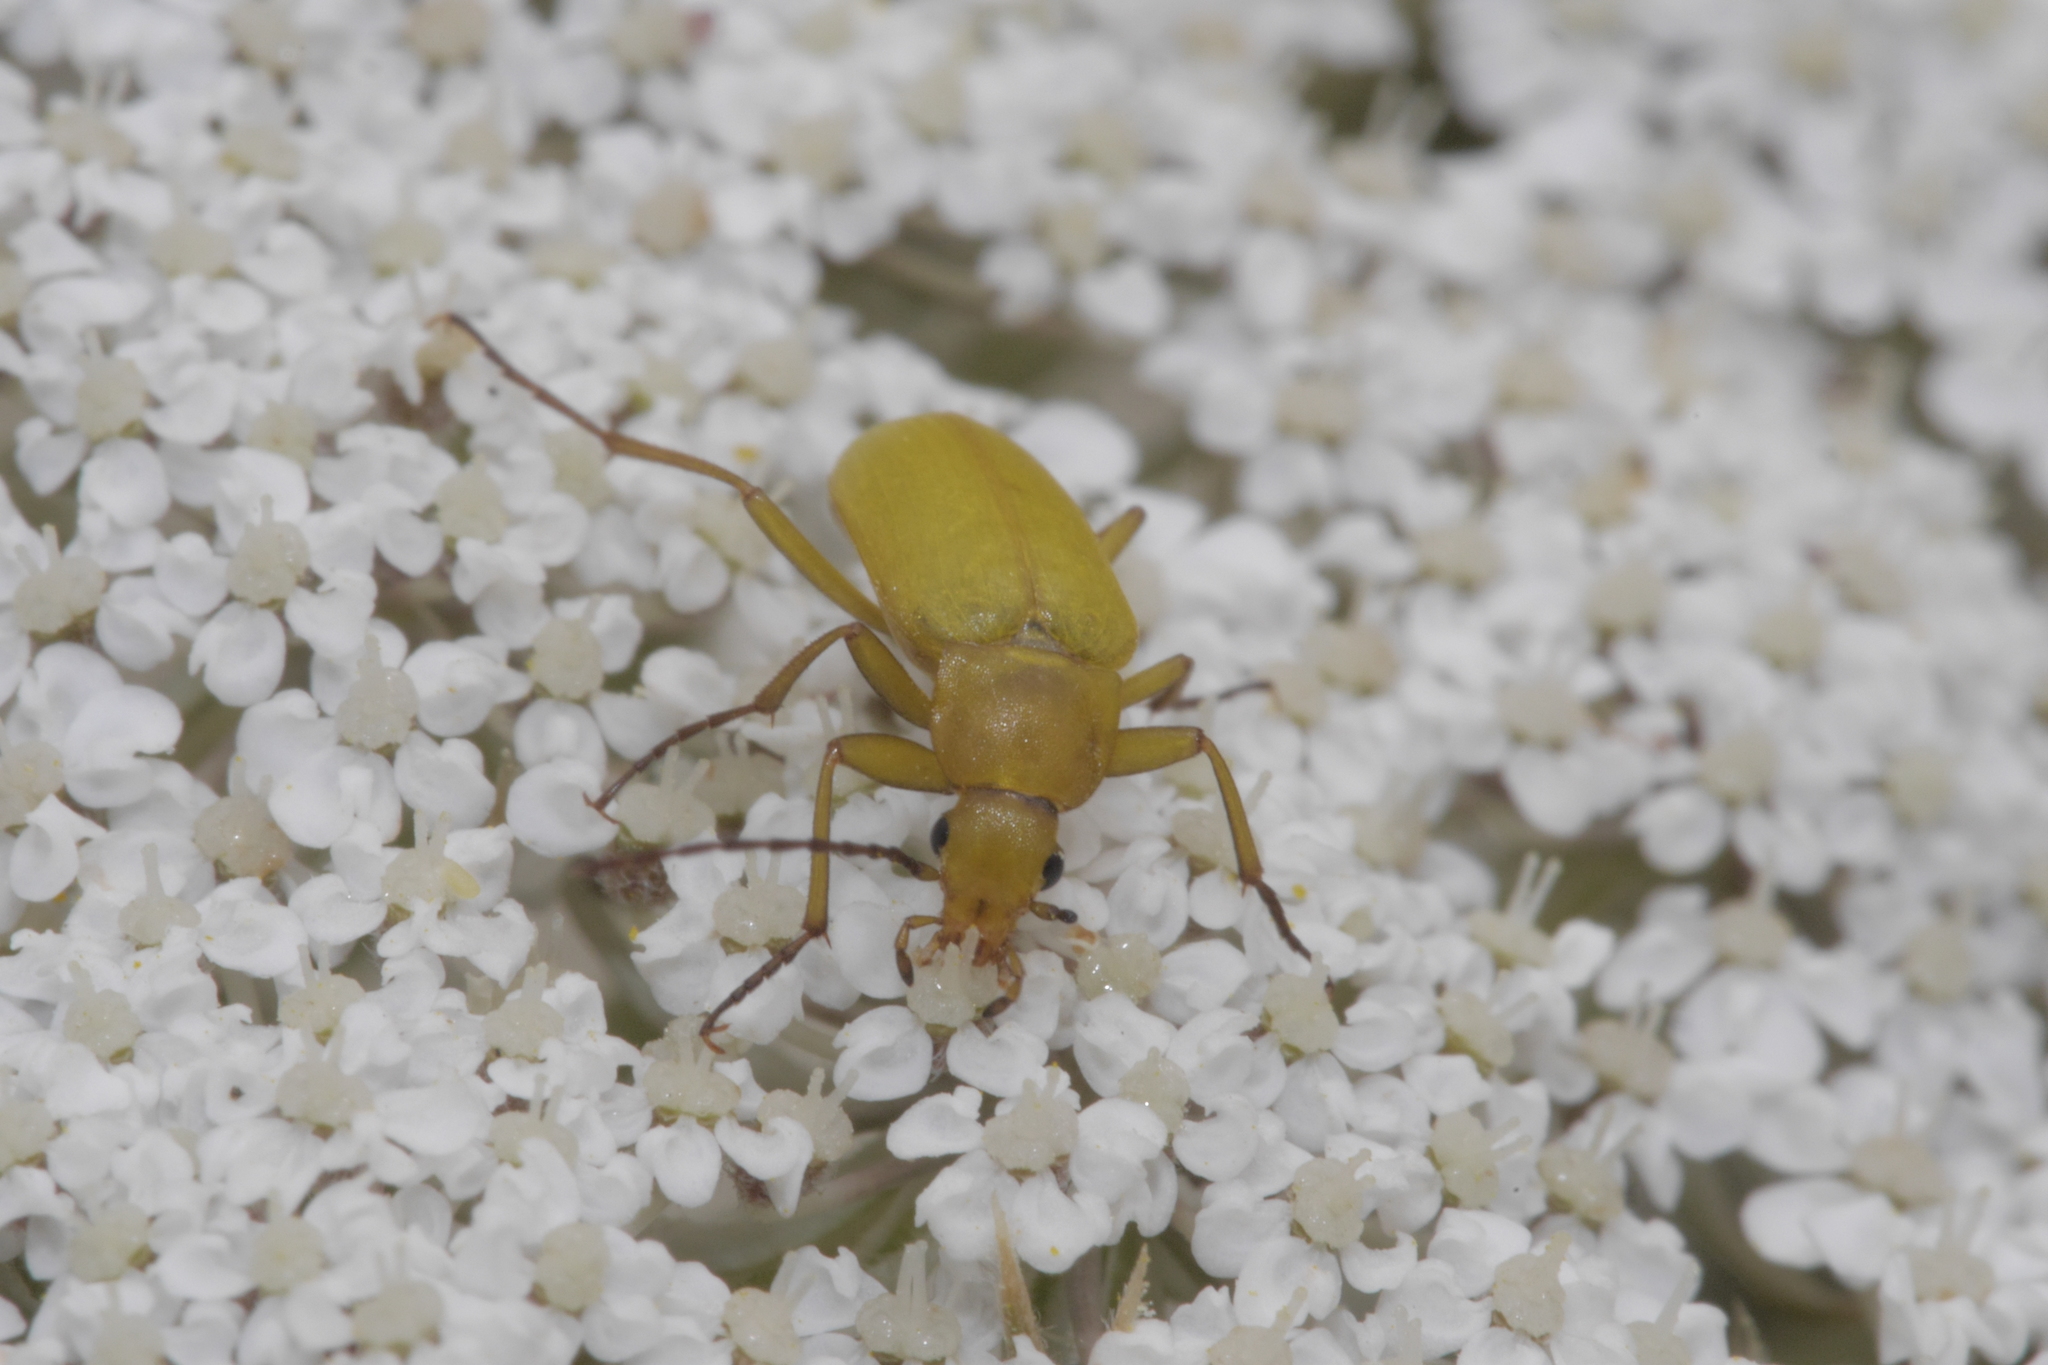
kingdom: Animalia
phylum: Arthropoda
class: Insecta
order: Coleoptera
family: Tenebrionidae
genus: Cteniopus
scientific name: Cteniopus sulphureus
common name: Sulphur beetle
